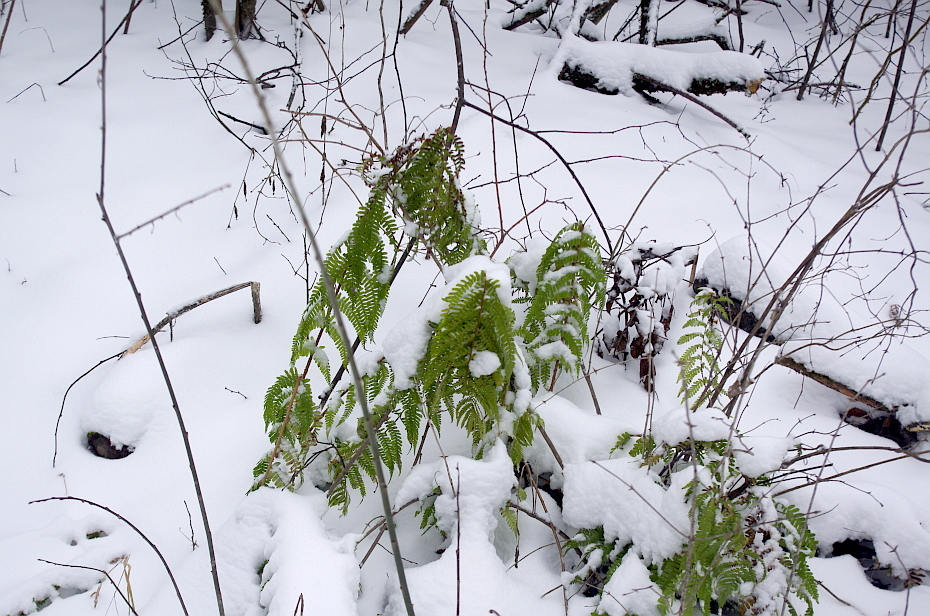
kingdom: Plantae
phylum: Tracheophyta
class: Polypodiopsida
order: Polypodiales
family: Dryopteridaceae
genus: Dryopteris
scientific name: Dryopteris filix-mas
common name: Male fern
